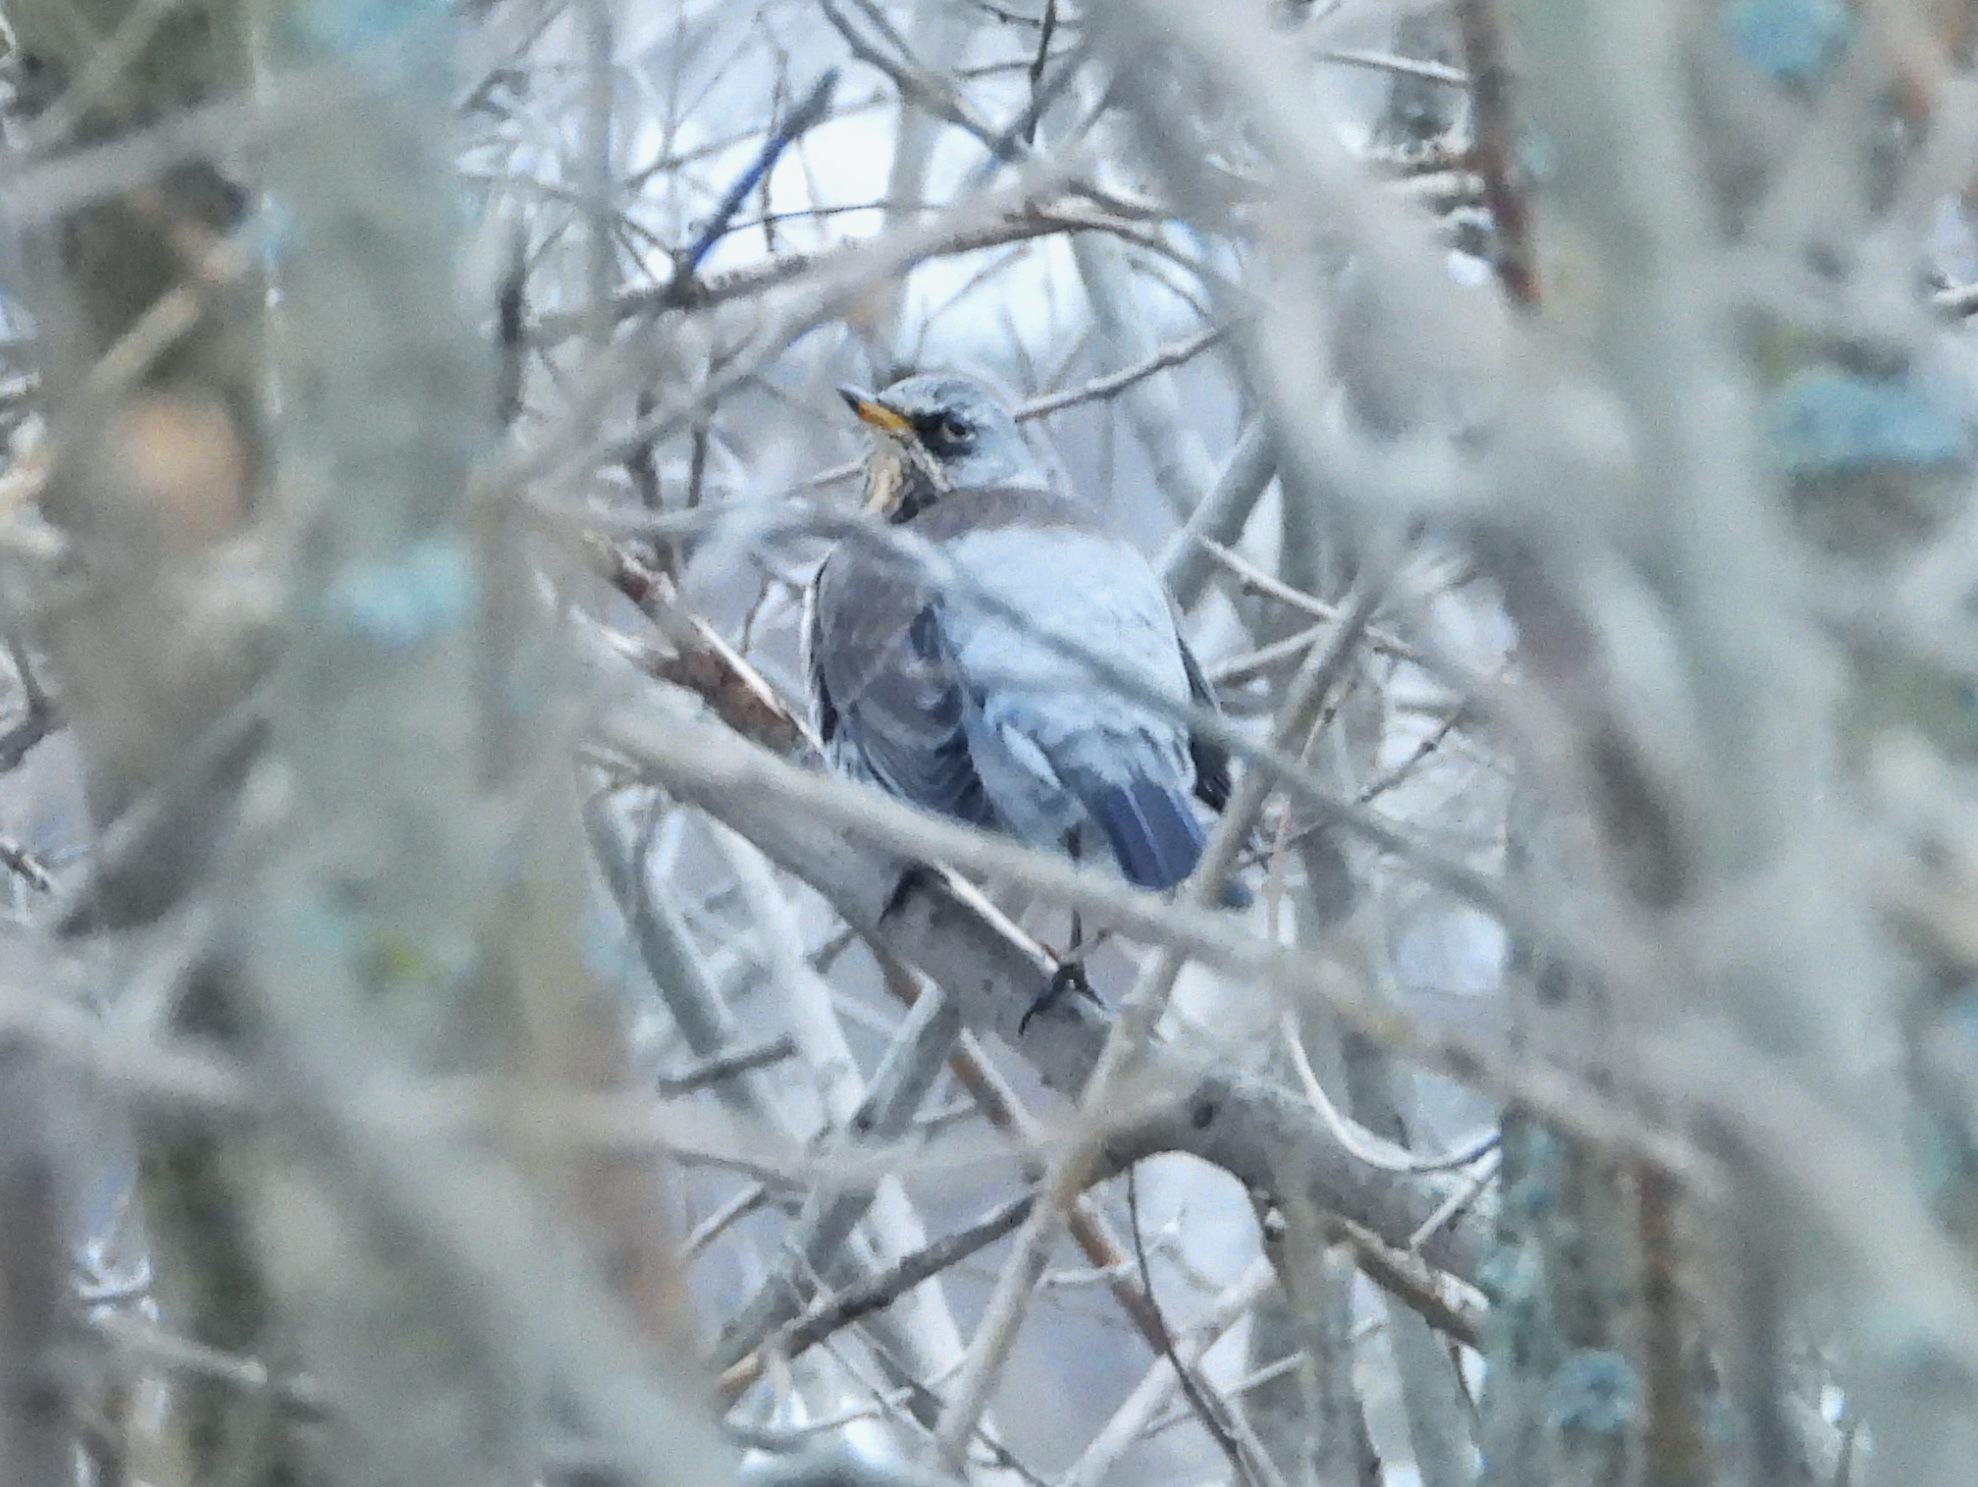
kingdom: Animalia
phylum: Chordata
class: Aves
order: Passeriformes
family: Turdidae
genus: Turdus
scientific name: Turdus pilaris
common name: Fieldfare
